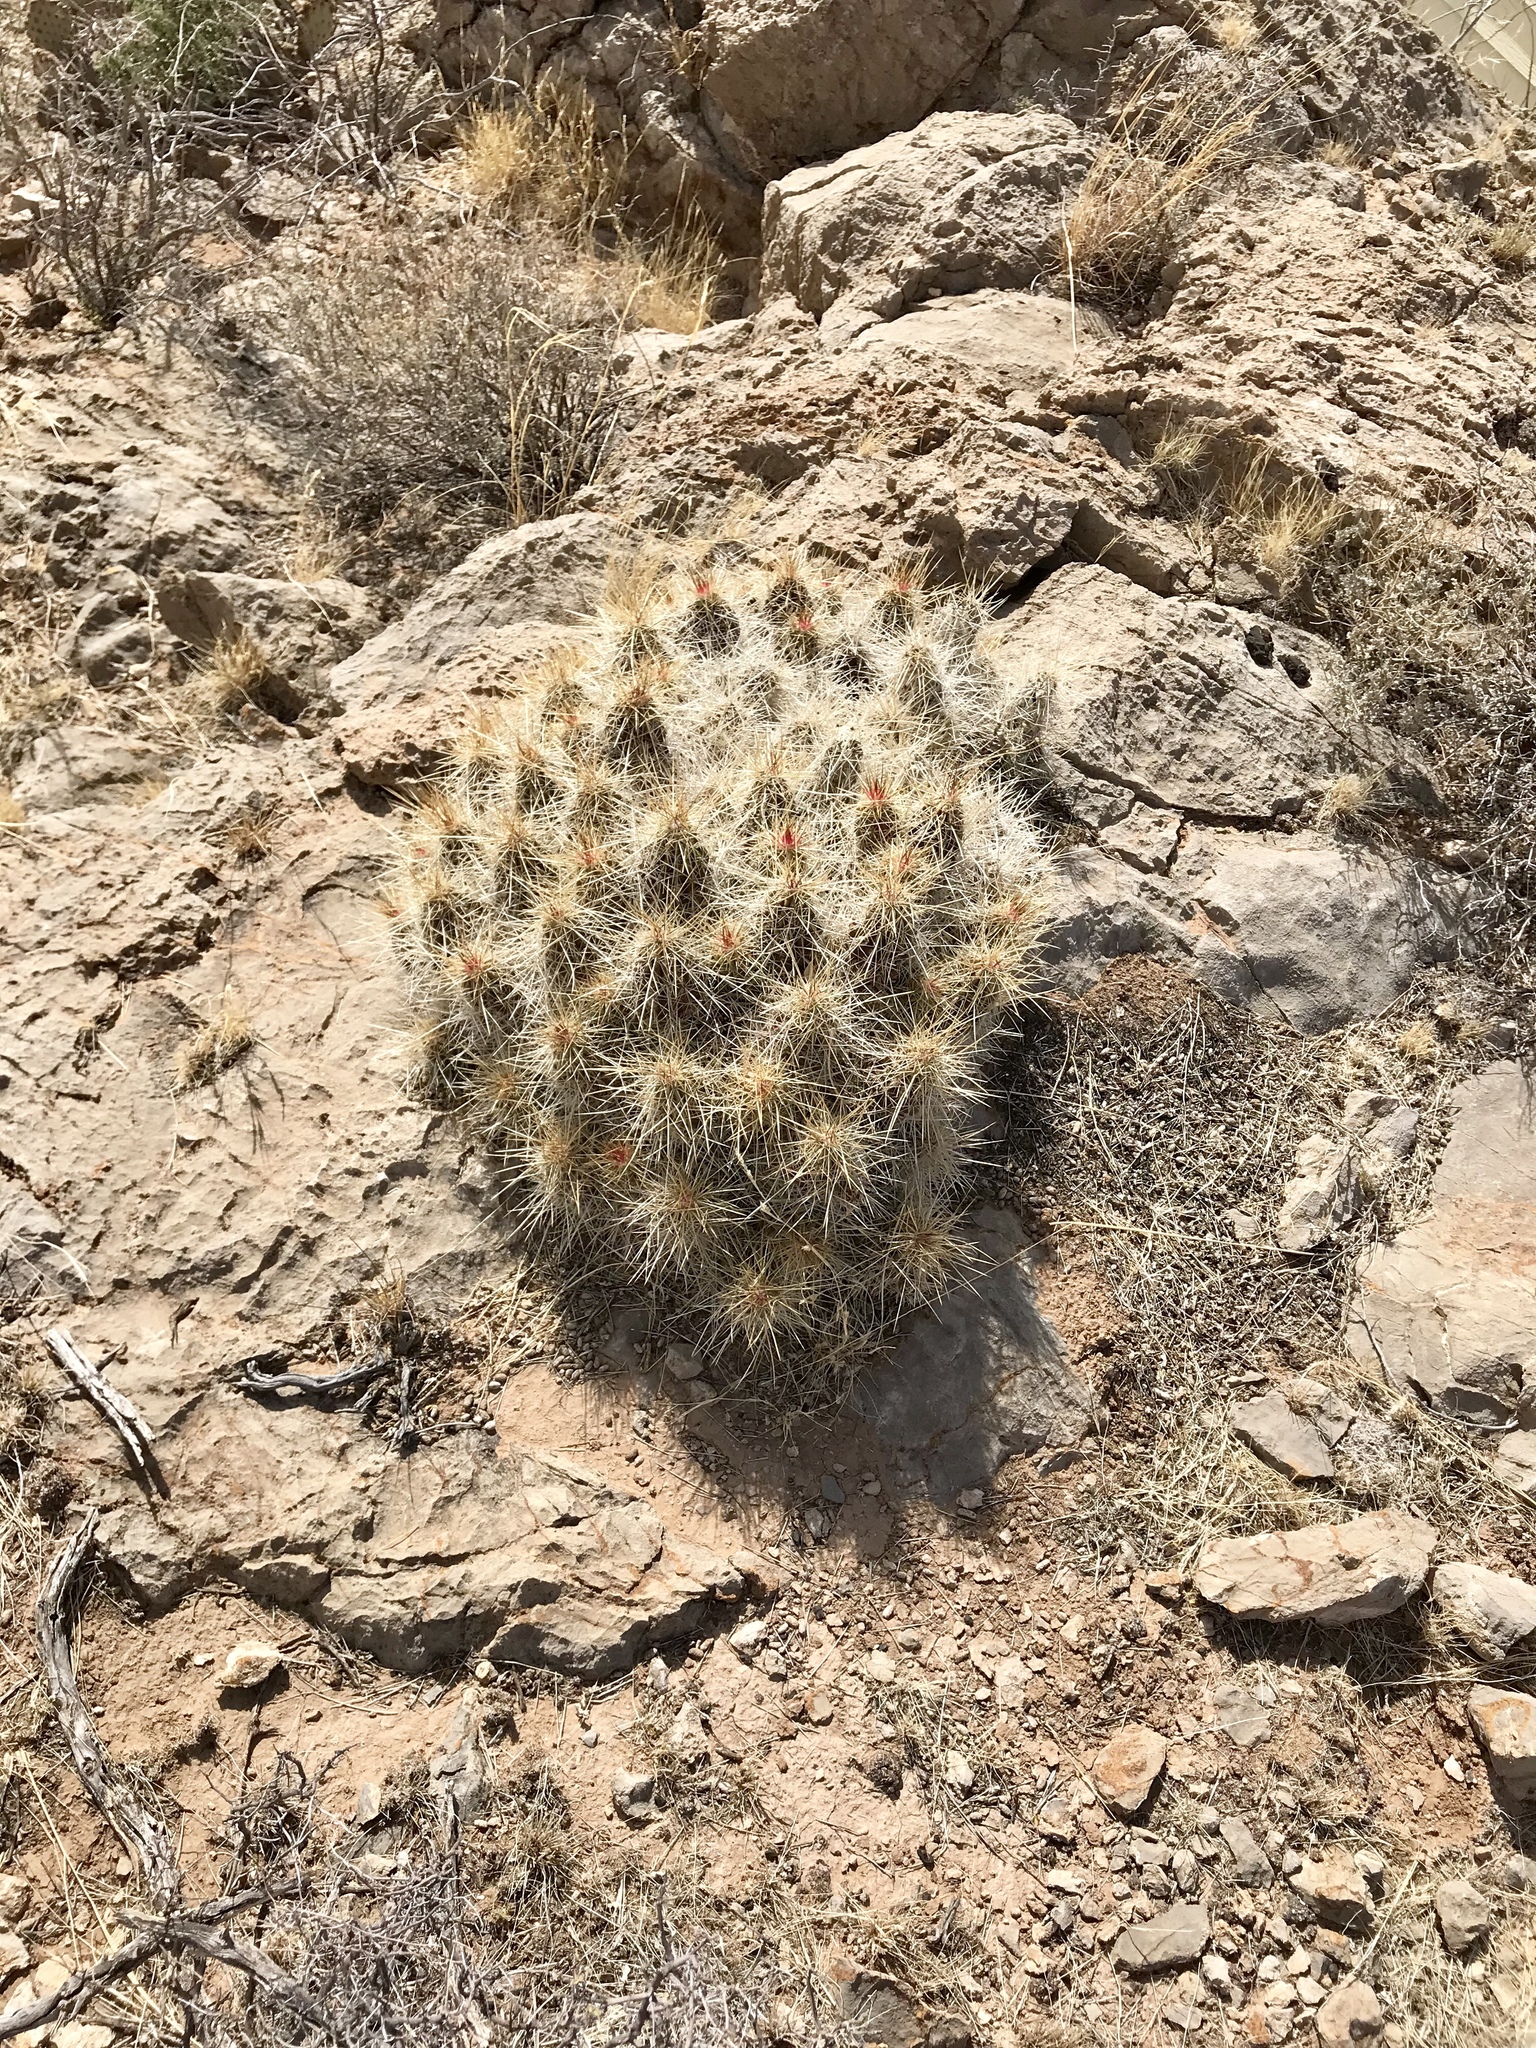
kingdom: Plantae
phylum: Tracheophyta
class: Magnoliopsida
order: Caryophyllales
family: Cactaceae
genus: Echinocereus
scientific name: Echinocereus stramineus
